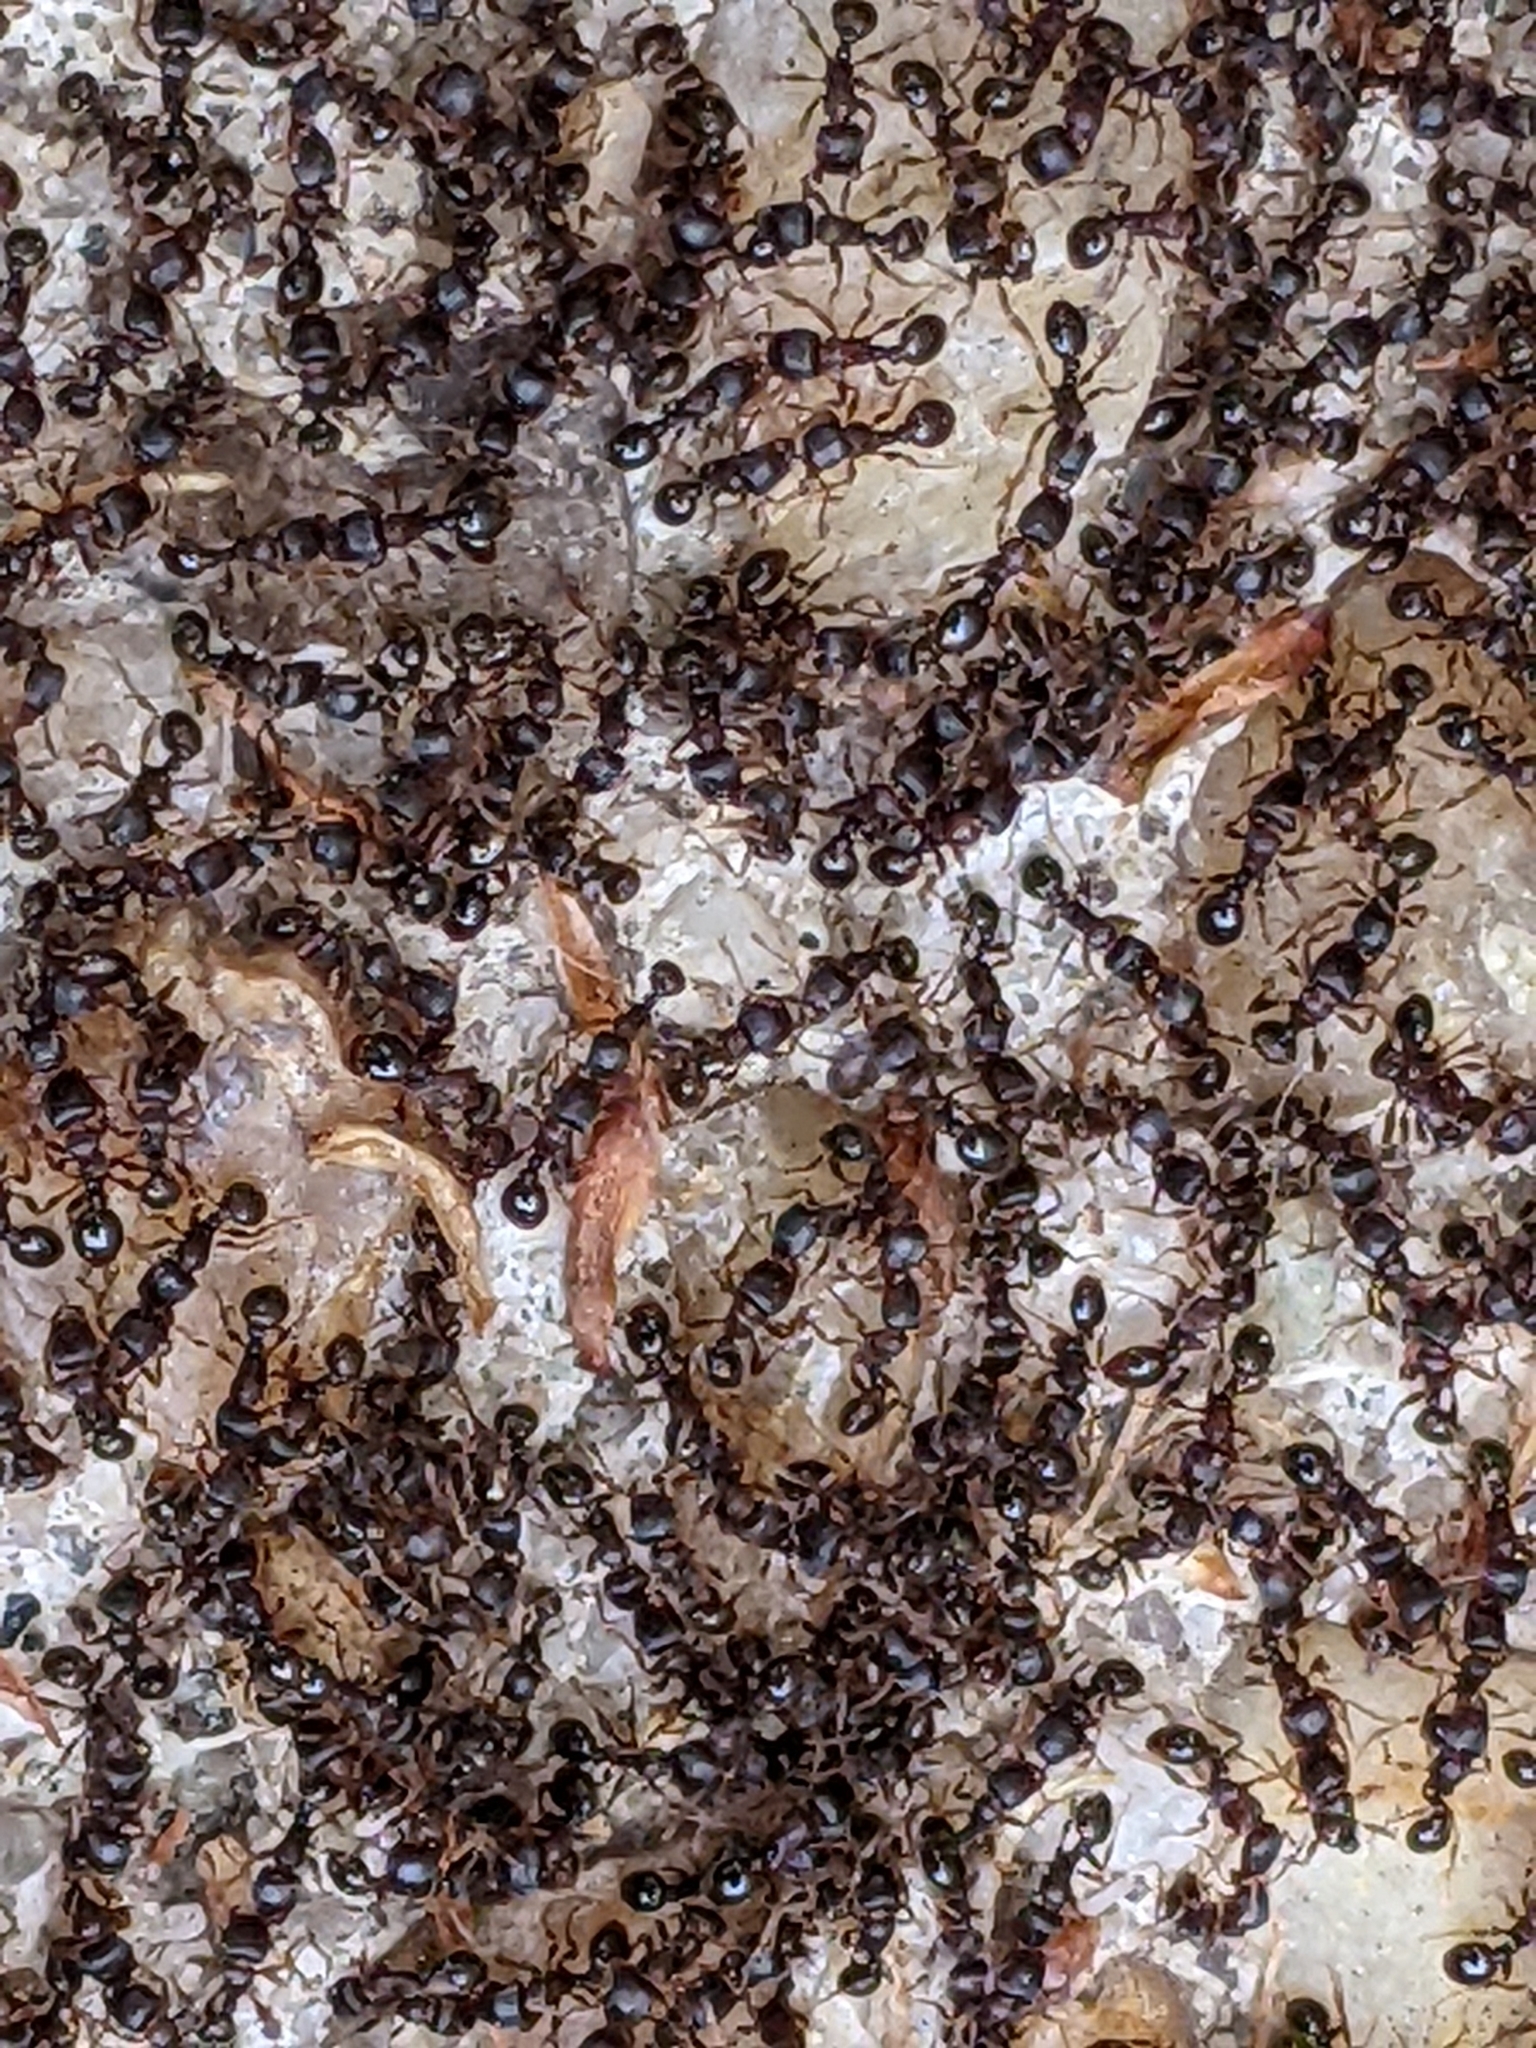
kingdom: Animalia
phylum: Arthropoda
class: Insecta
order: Hymenoptera
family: Formicidae
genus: Tetramorium
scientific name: Tetramorium immigrans
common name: Pavement ant
